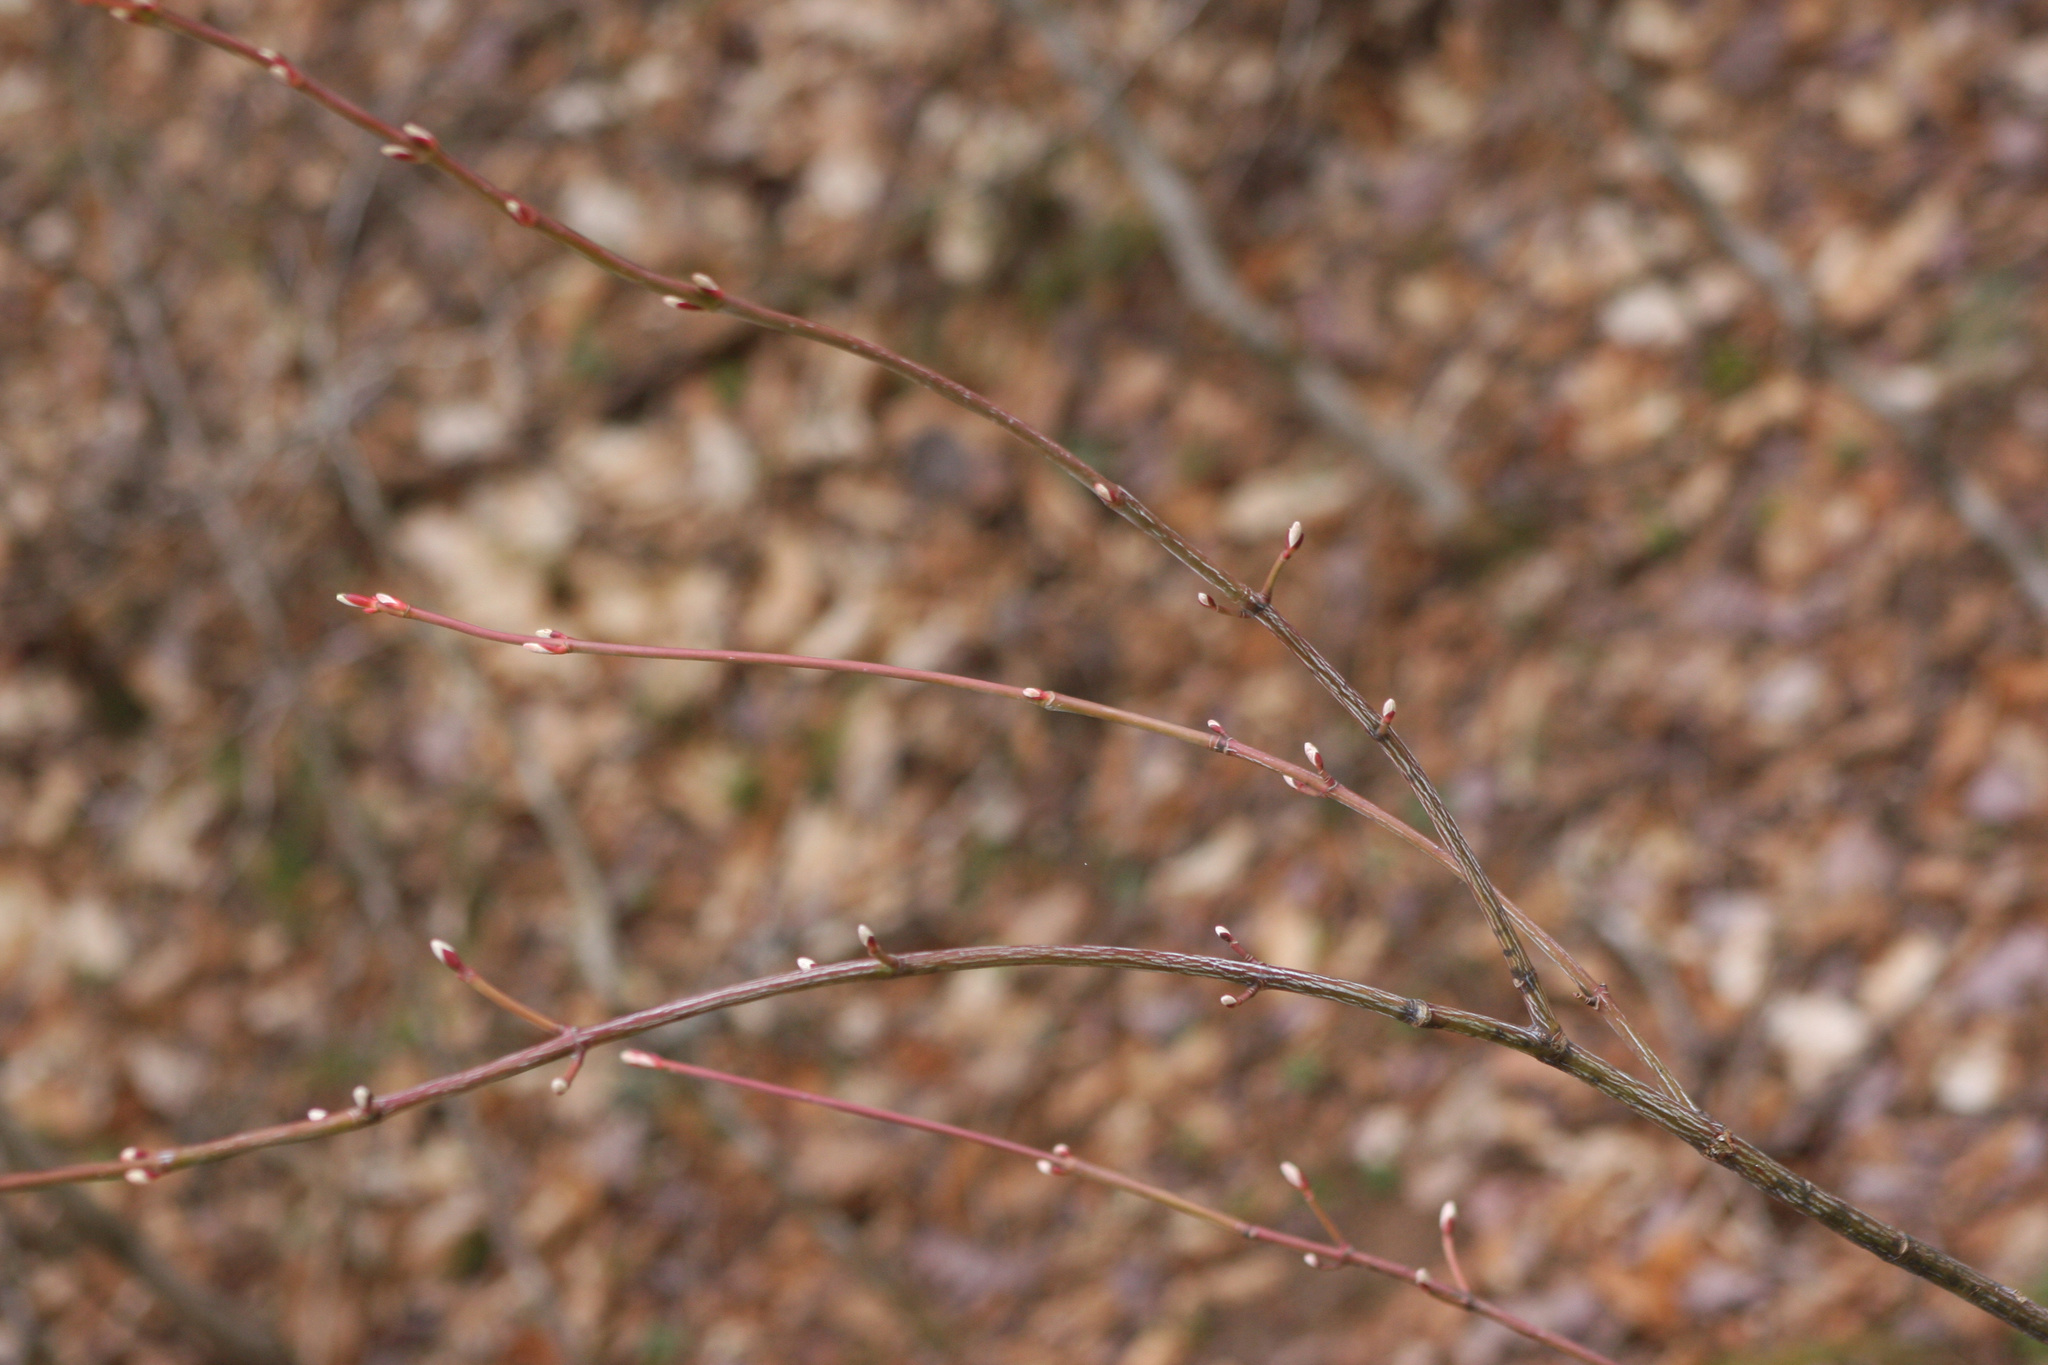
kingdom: Plantae
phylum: Tracheophyta
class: Magnoliopsida
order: Sapindales
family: Sapindaceae
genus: Acer
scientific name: Acer pensylvanicum
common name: Moosewood
